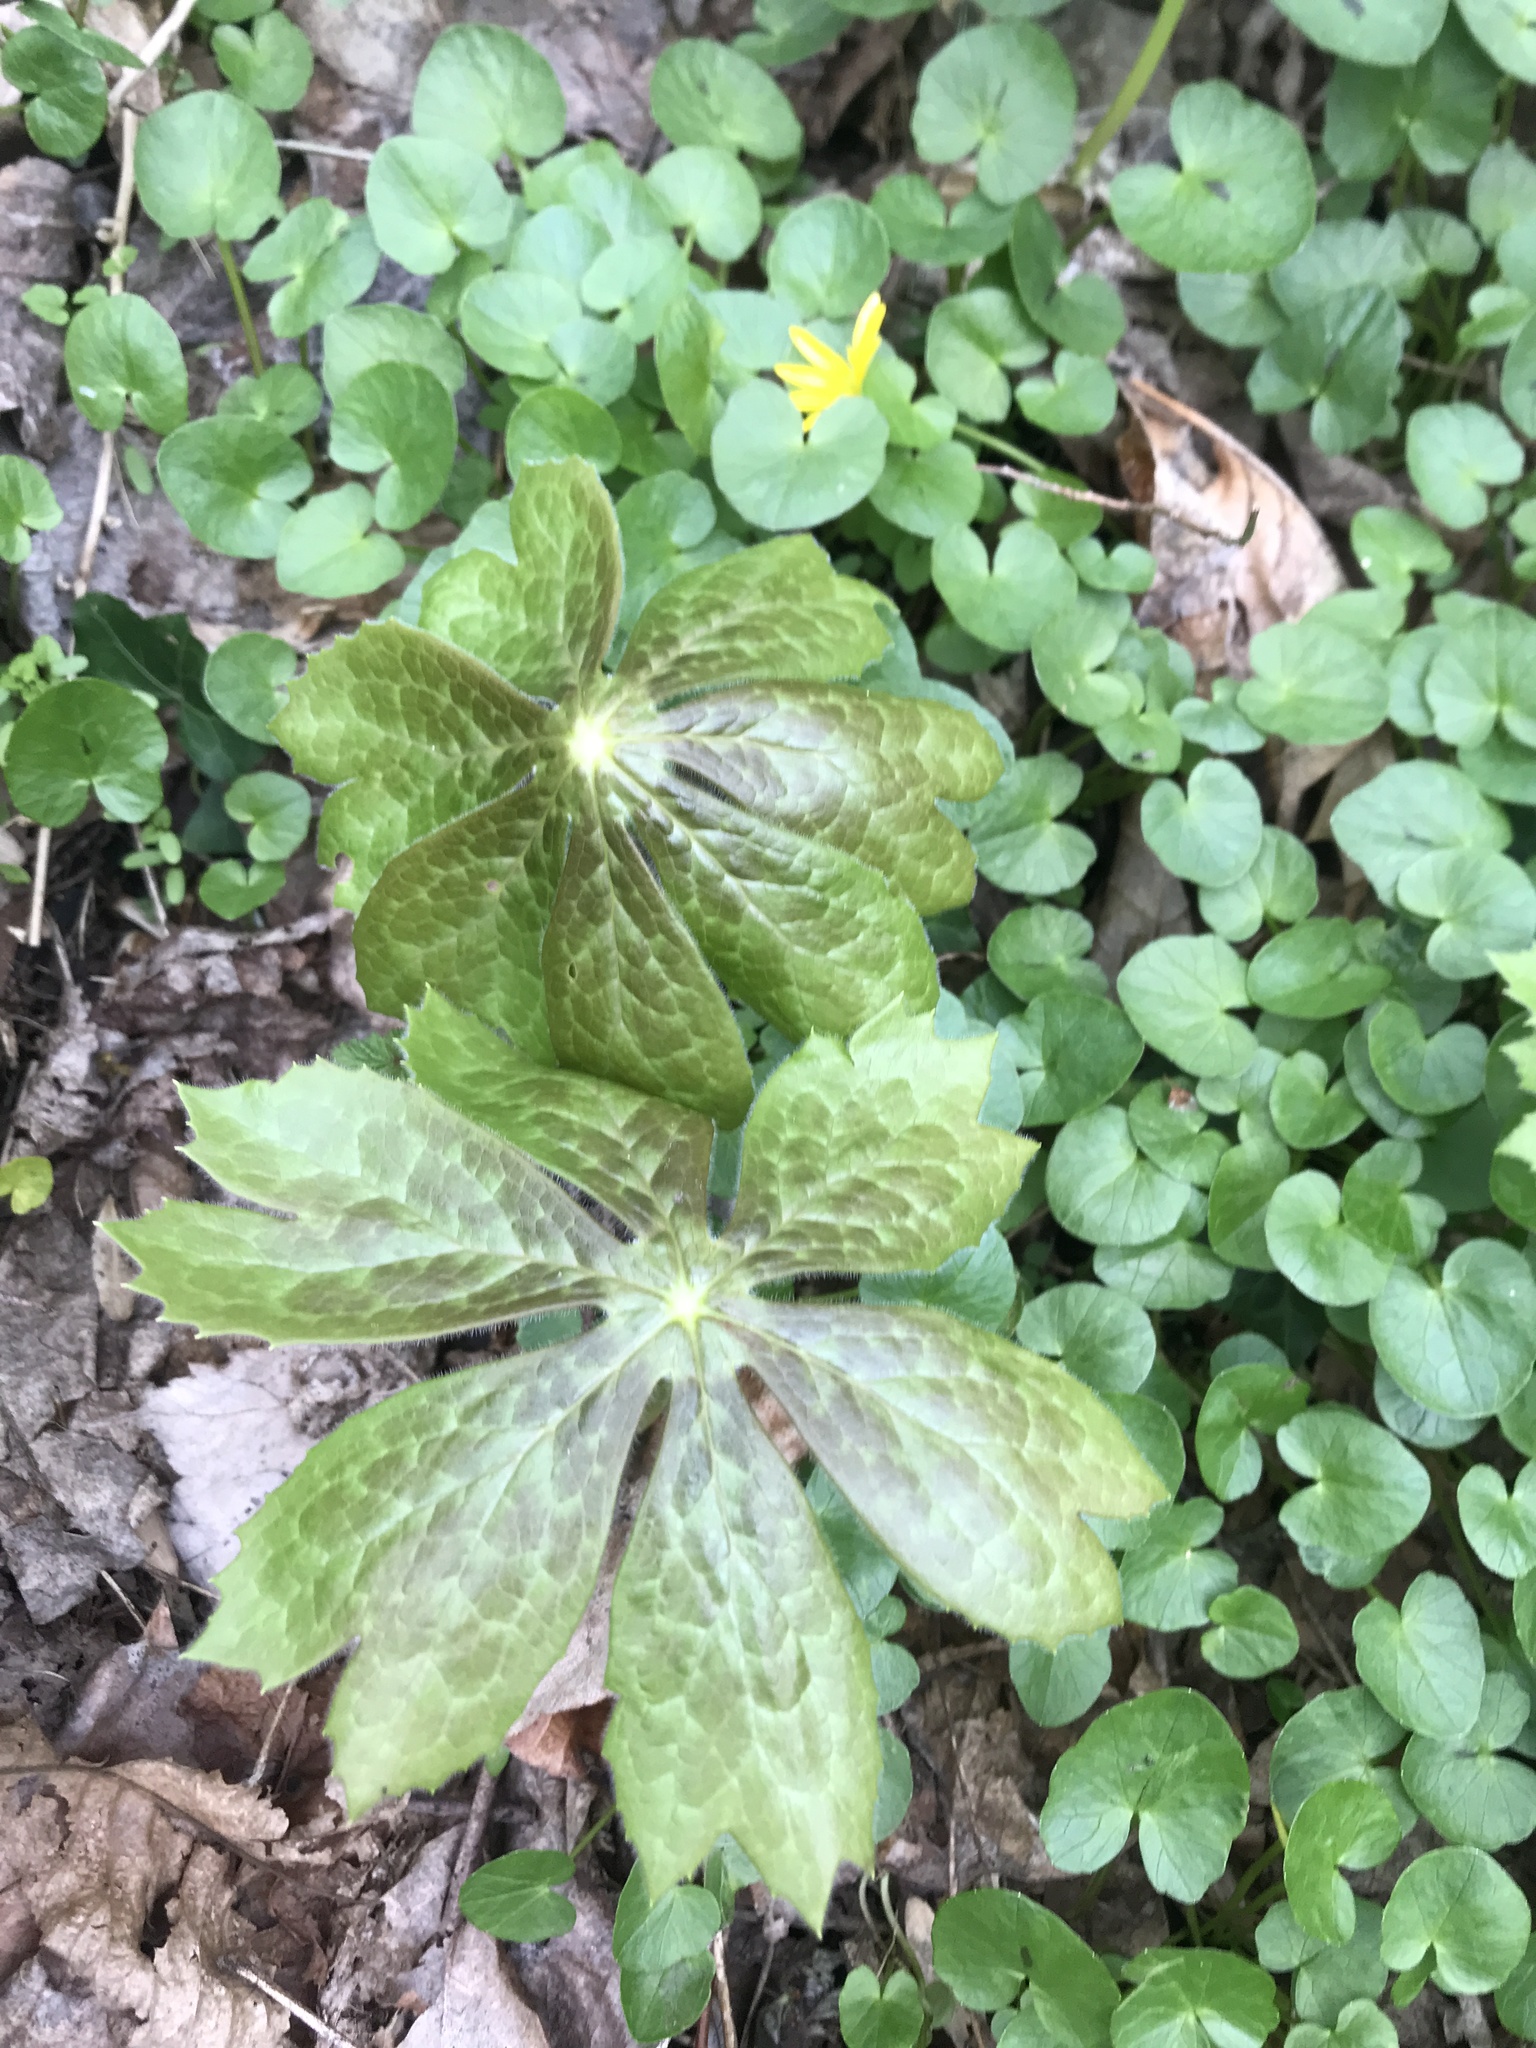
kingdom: Plantae
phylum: Tracheophyta
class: Magnoliopsida
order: Ranunculales
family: Berberidaceae
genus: Podophyllum
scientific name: Podophyllum peltatum
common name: Wild mandrake
